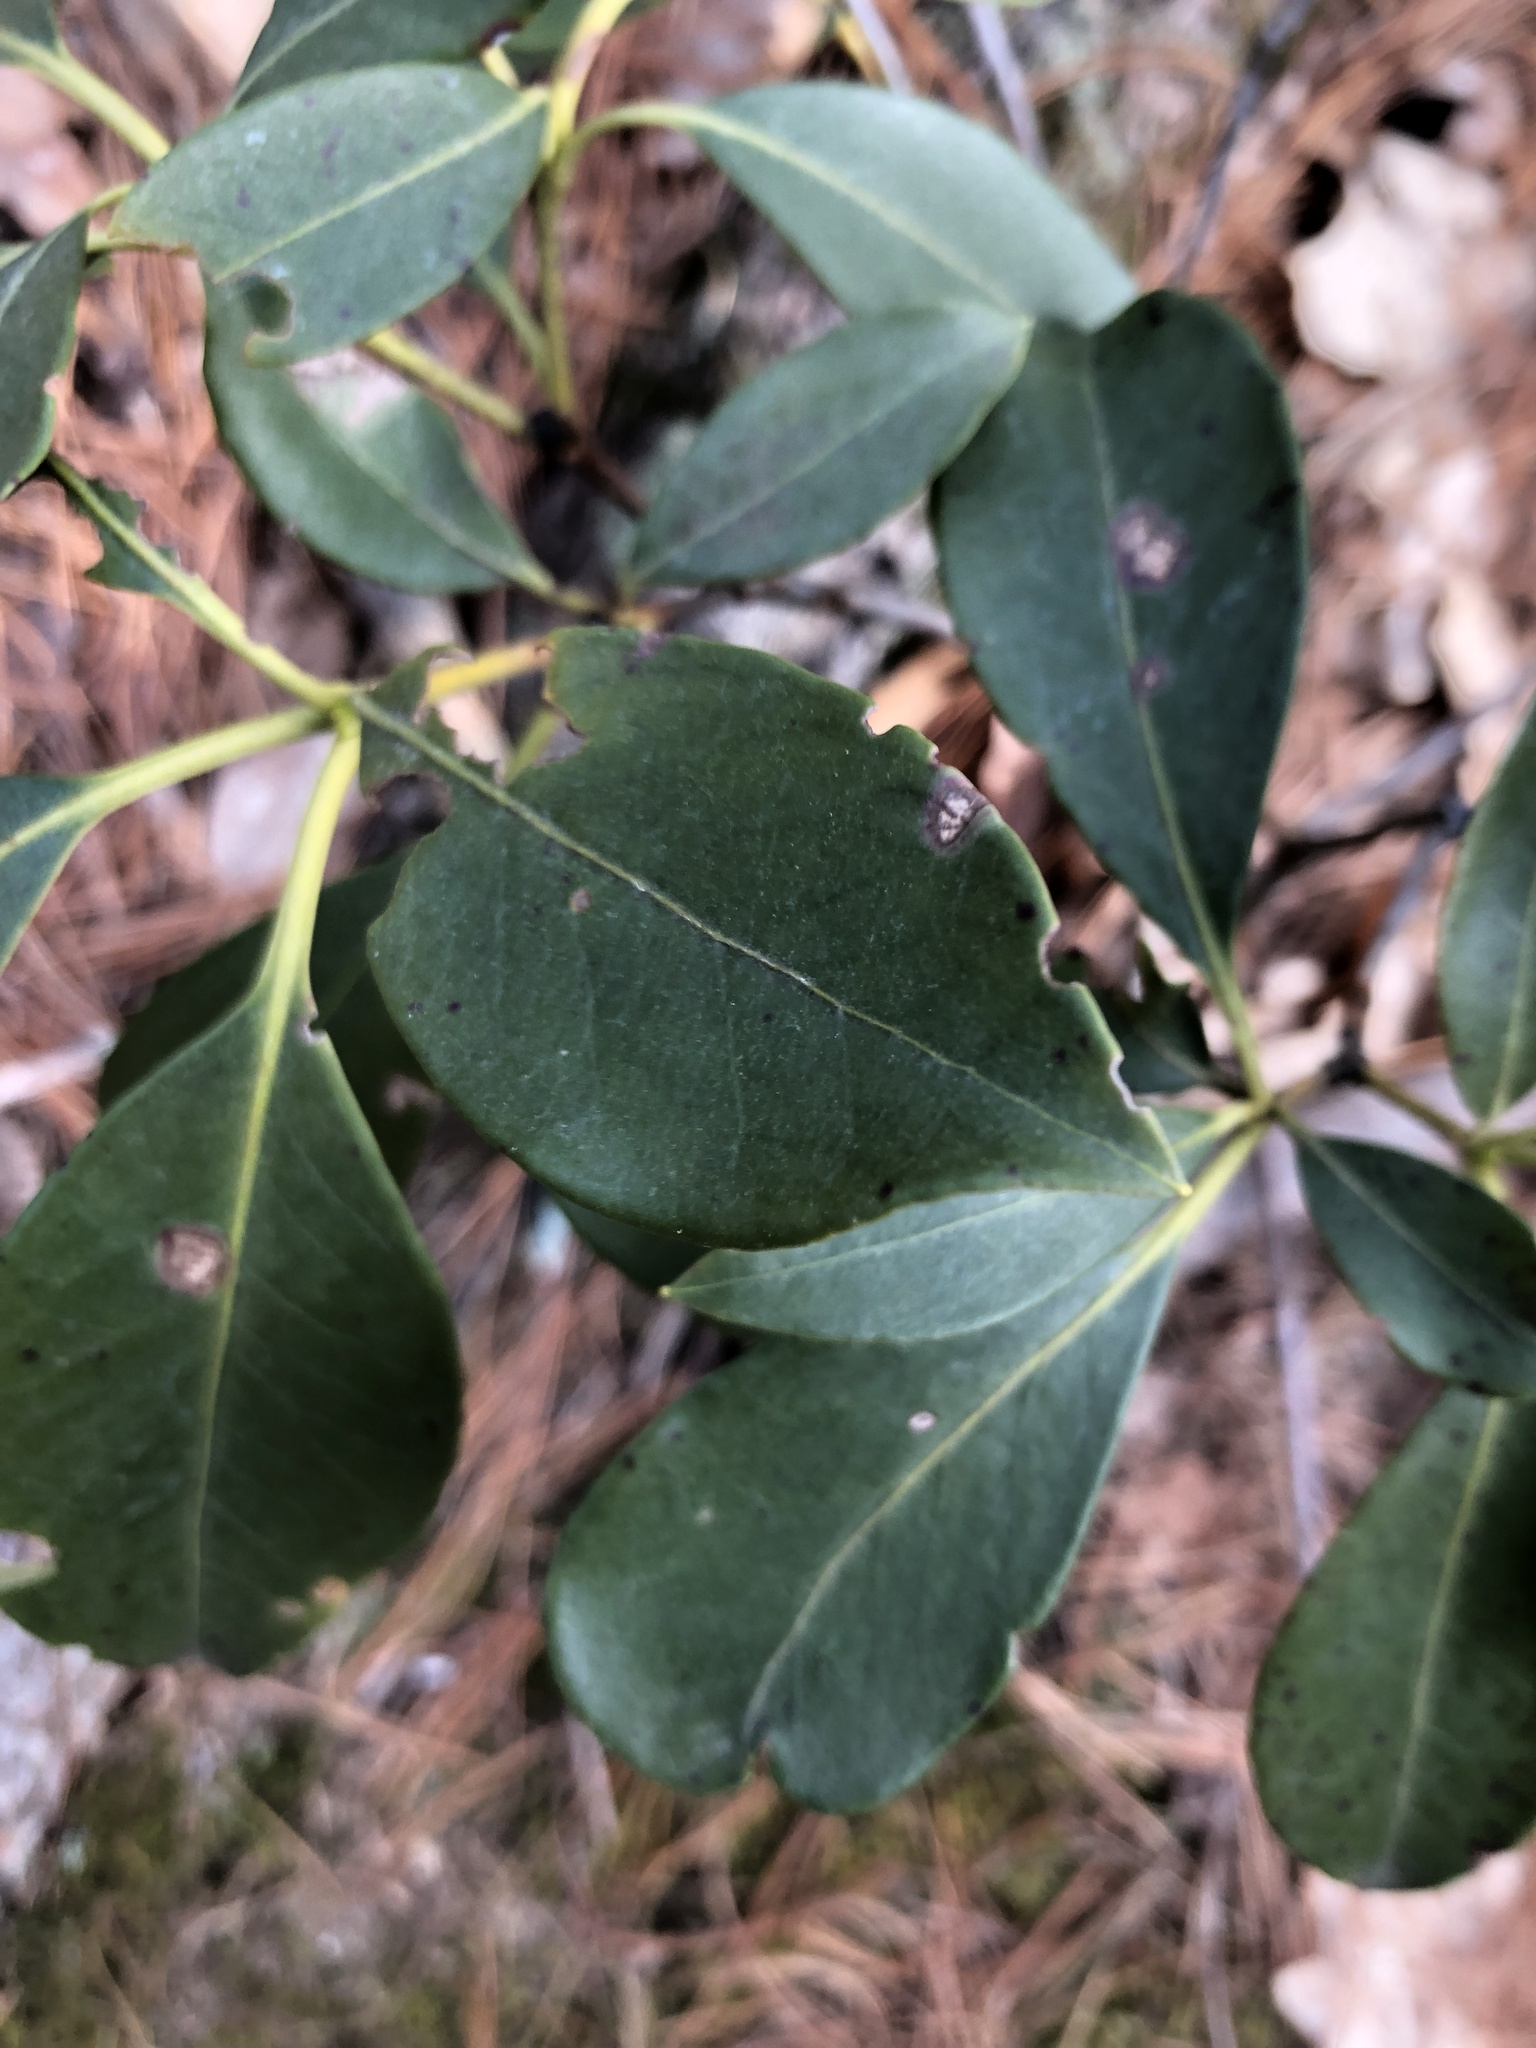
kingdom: Plantae
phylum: Tracheophyta
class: Magnoliopsida
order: Ericales
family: Ericaceae
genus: Kalmia
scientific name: Kalmia latifolia
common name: Mountain-laurel
